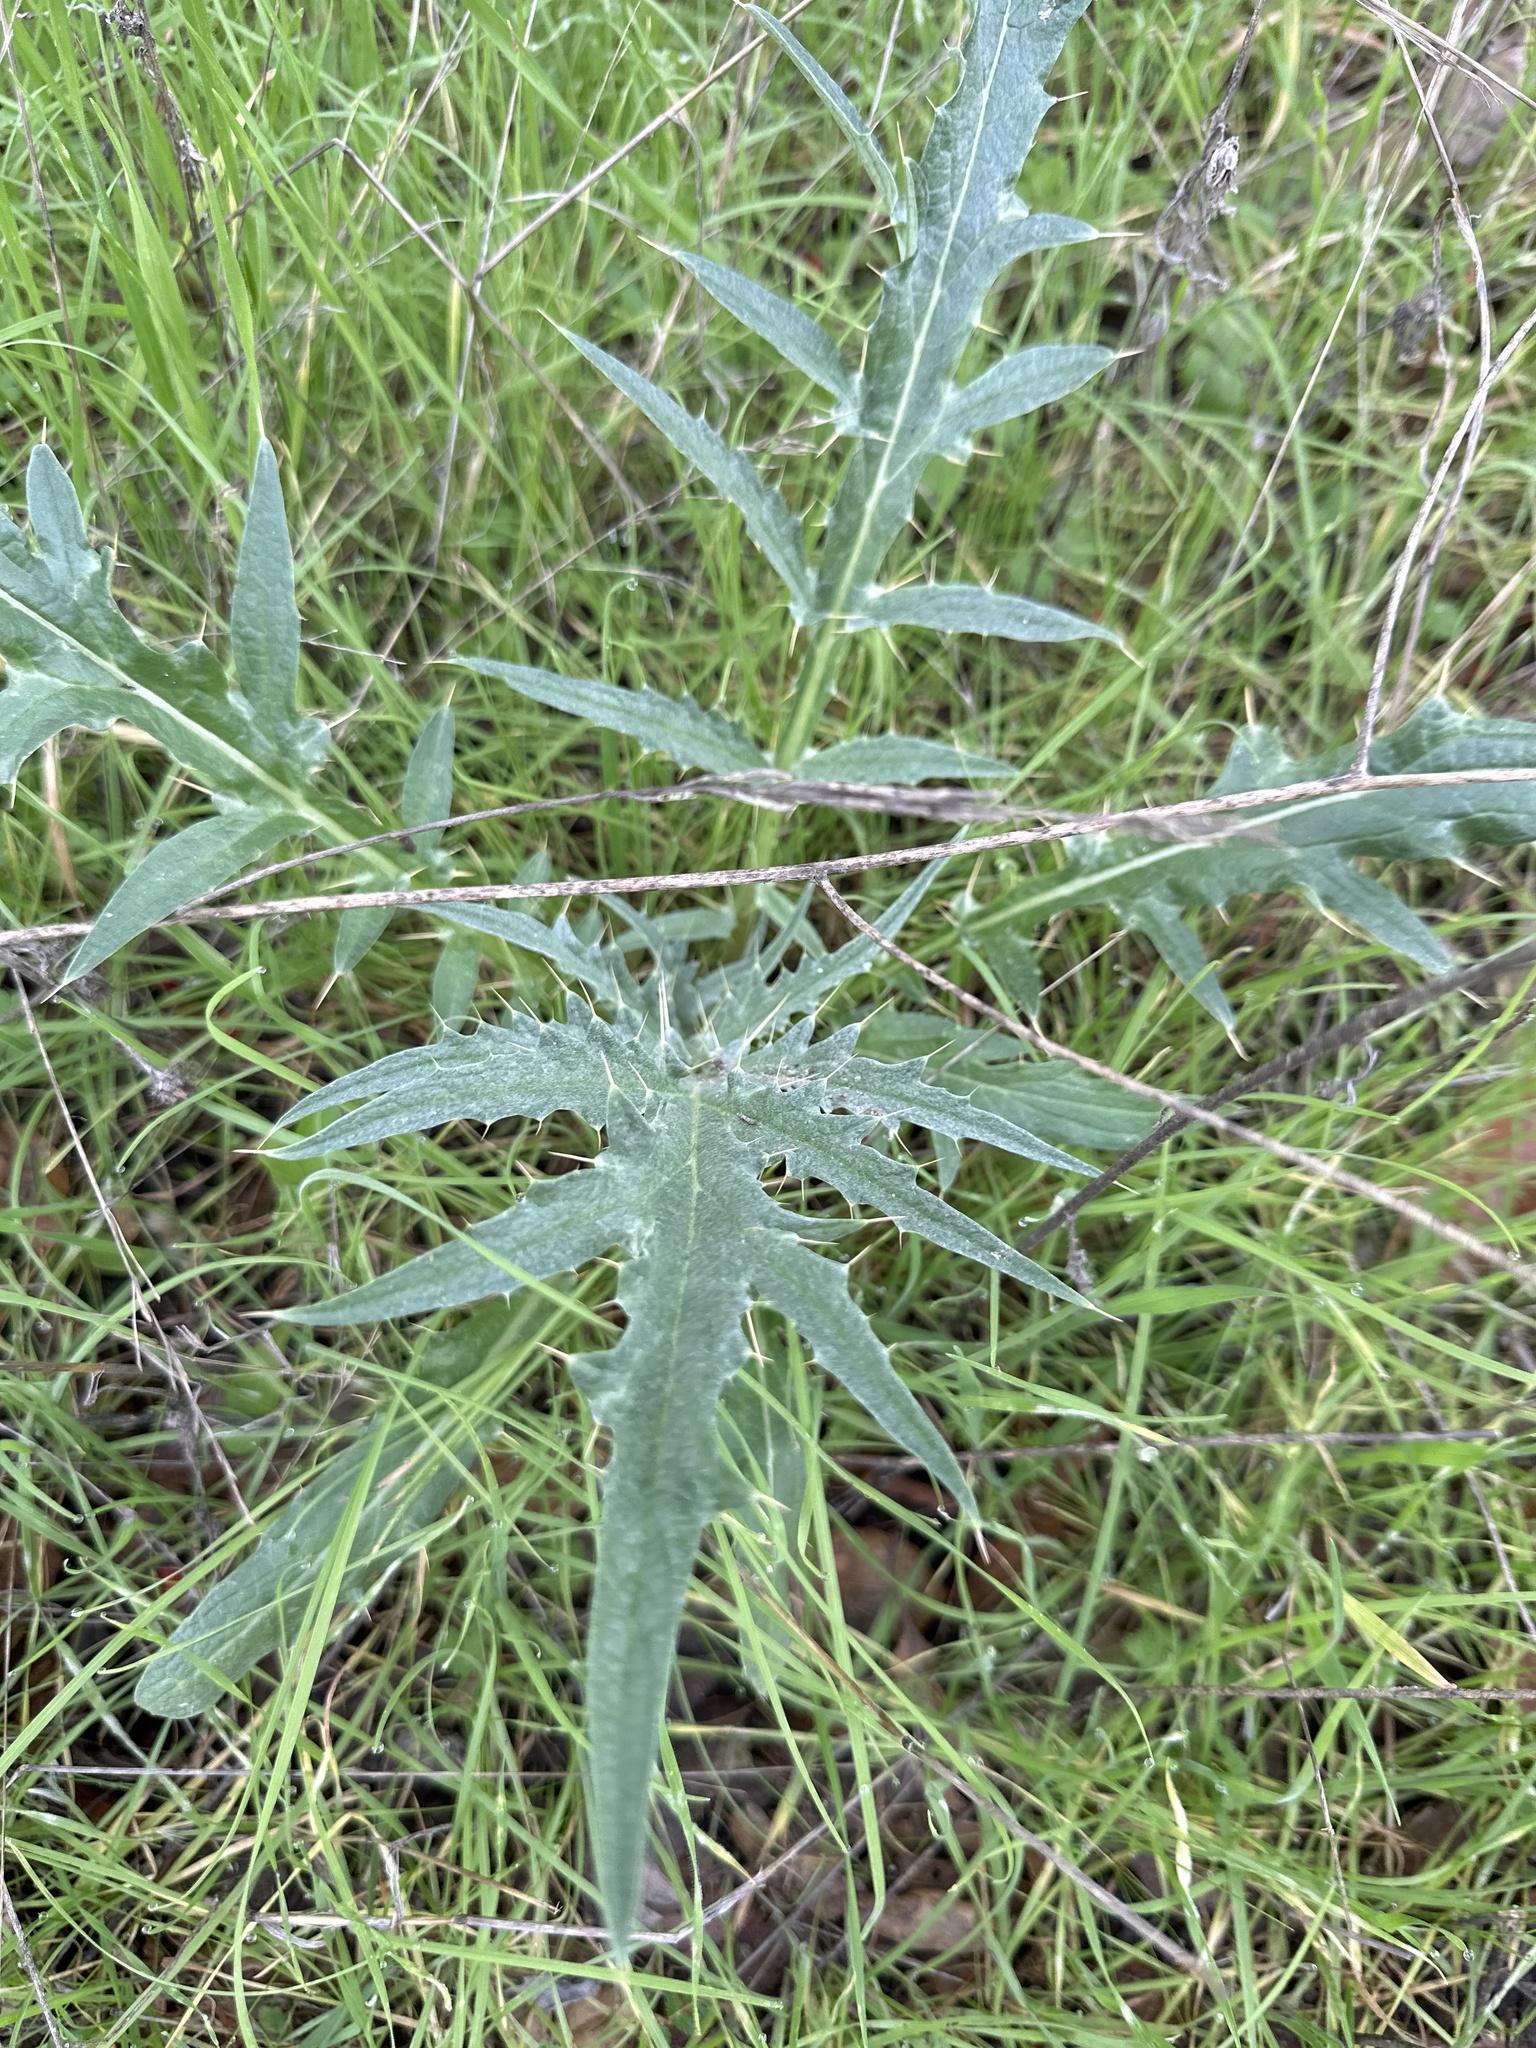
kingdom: Plantae
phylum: Tracheophyta
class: Magnoliopsida
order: Asterales
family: Asteraceae
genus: Cynara
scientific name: Cynara cardunculus
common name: Globe artichoke
